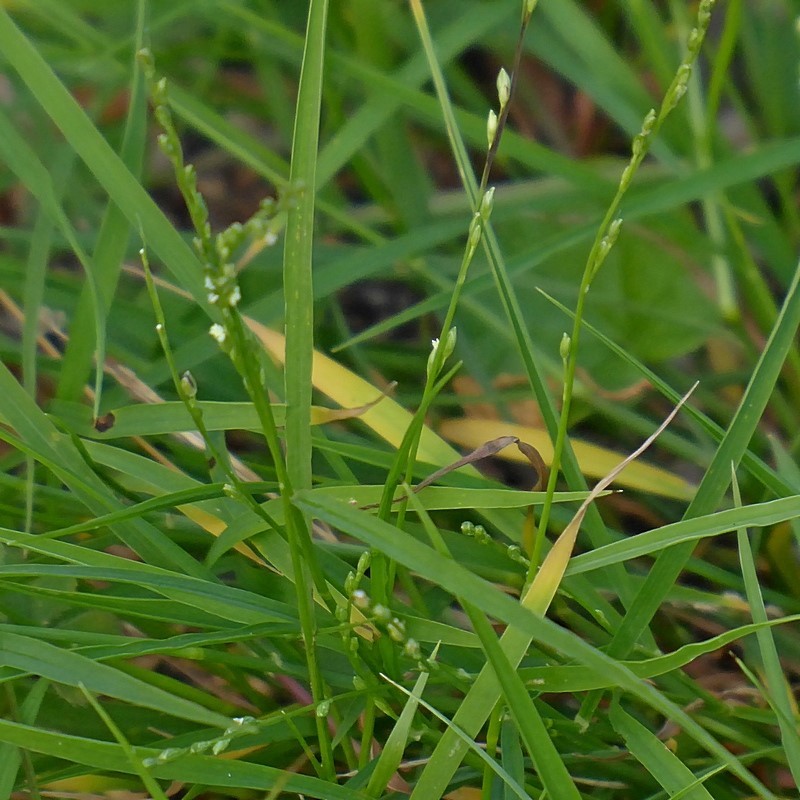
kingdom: Plantae
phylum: Tracheophyta
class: Liliopsida
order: Poales
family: Poaceae
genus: Setaria
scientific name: Setaria criniformis
